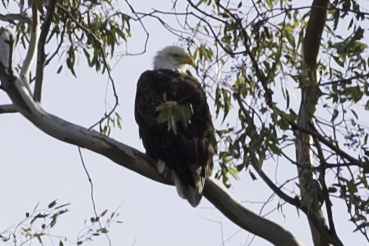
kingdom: Animalia
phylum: Chordata
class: Aves
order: Accipitriformes
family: Accipitridae
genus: Haliaeetus
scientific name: Haliaeetus leucocephalus
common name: Bald eagle
